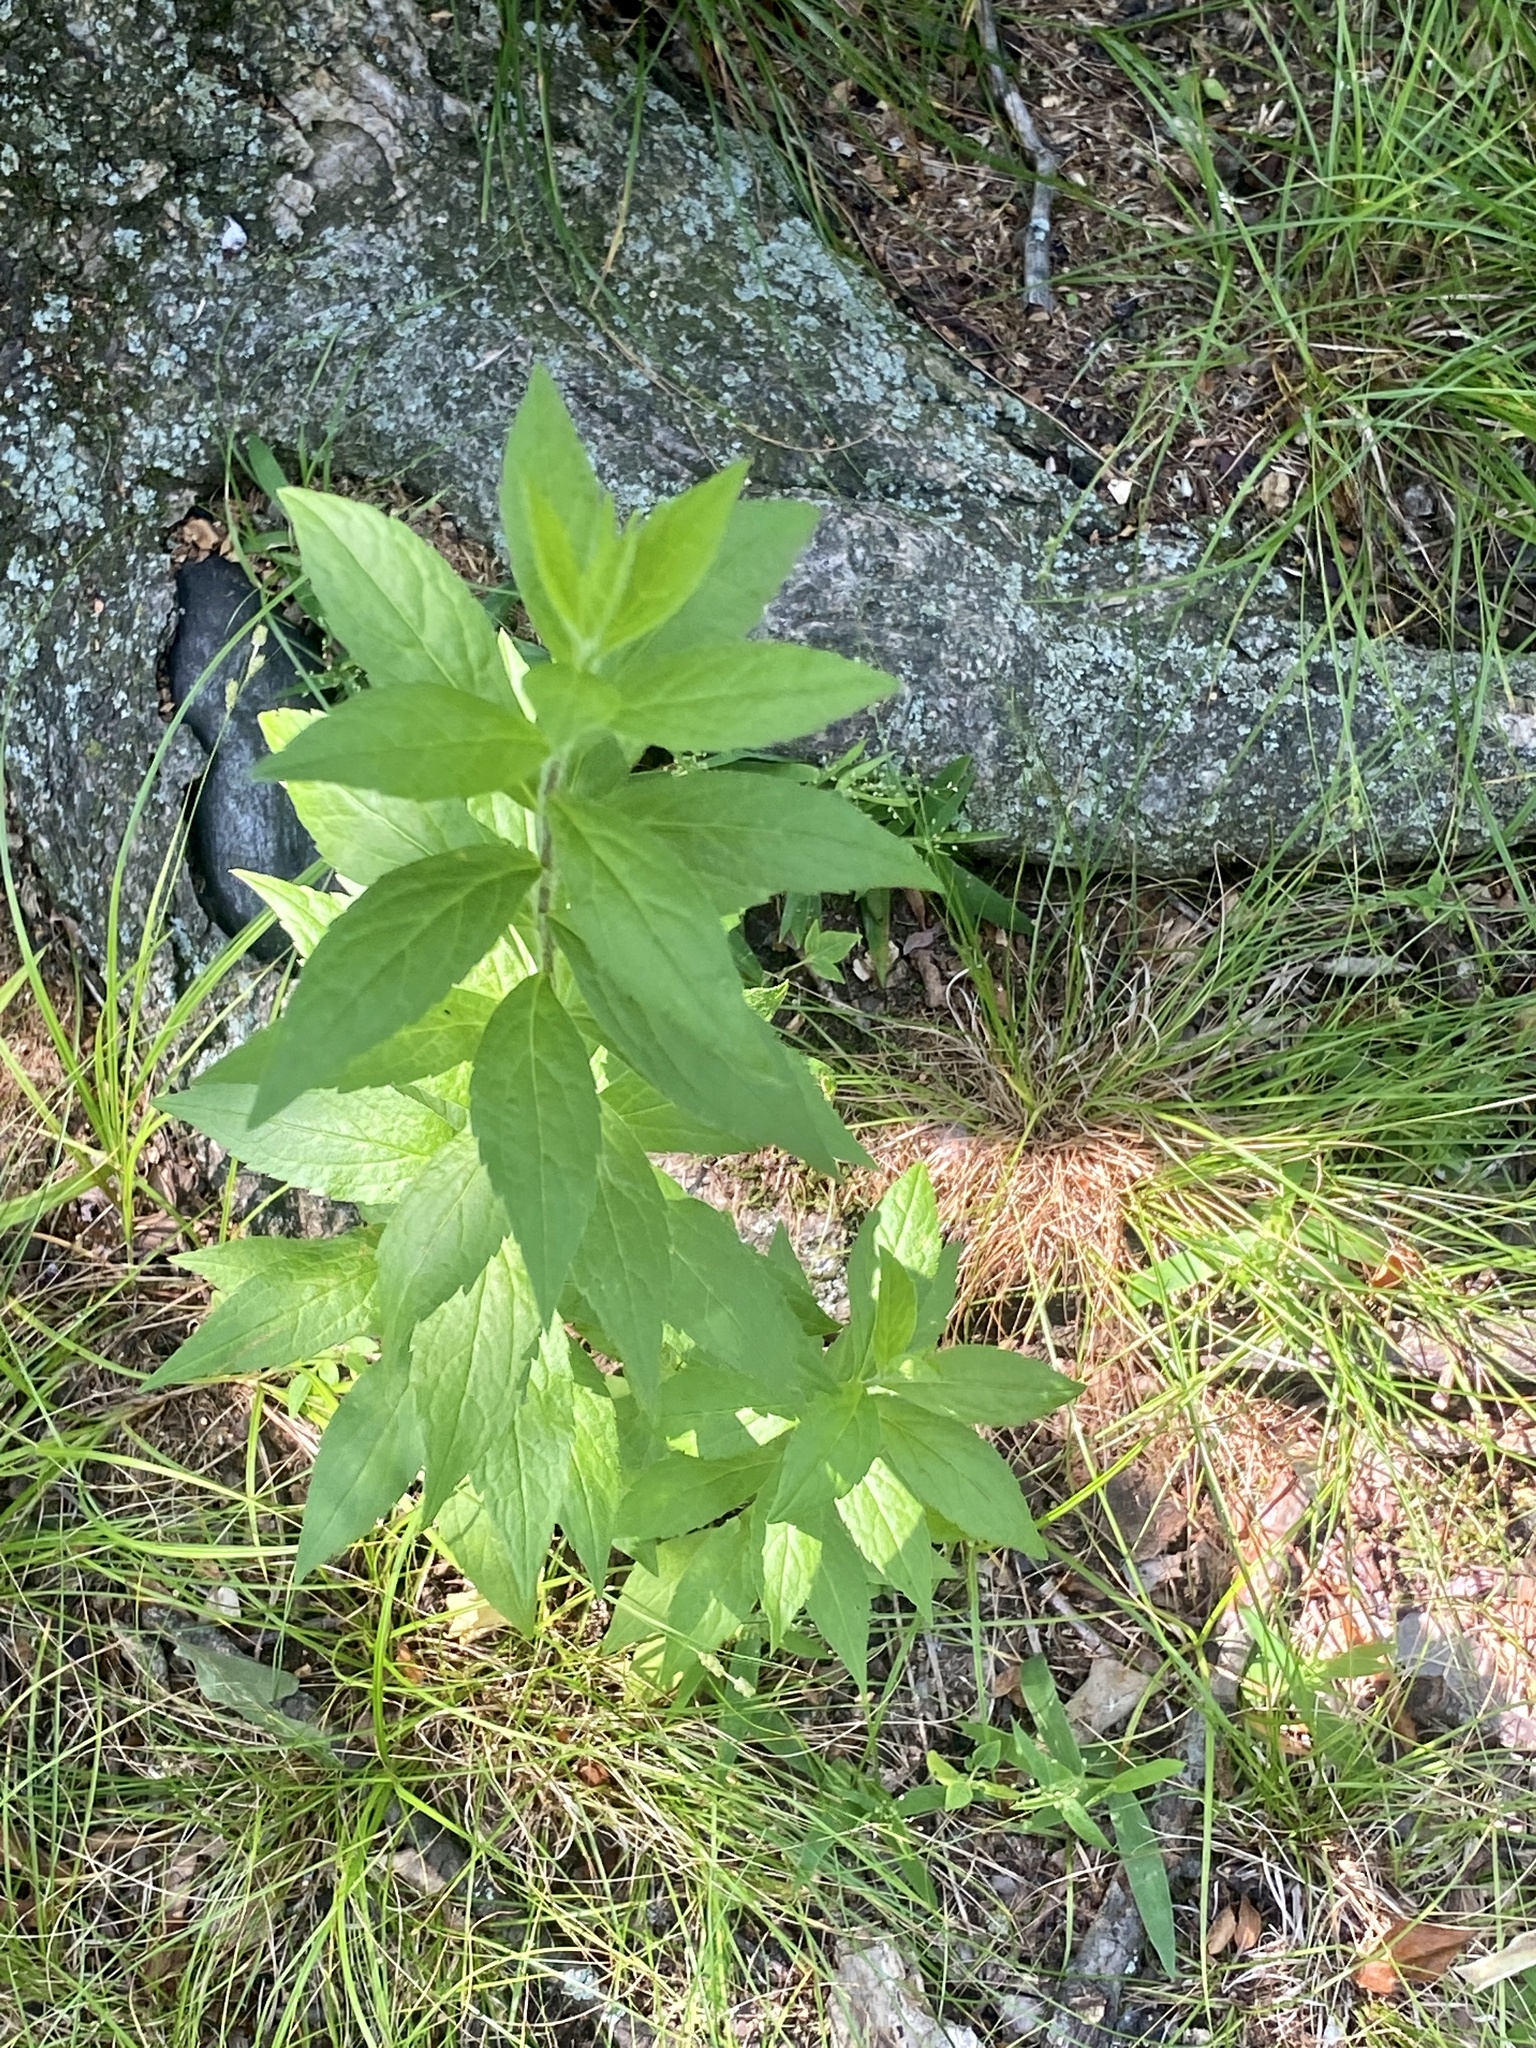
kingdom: Plantae
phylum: Tracheophyta
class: Magnoliopsida
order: Asterales
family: Asteraceae
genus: Solidago
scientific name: Solidago rugosa
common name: Rough-stemmed goldenrod
